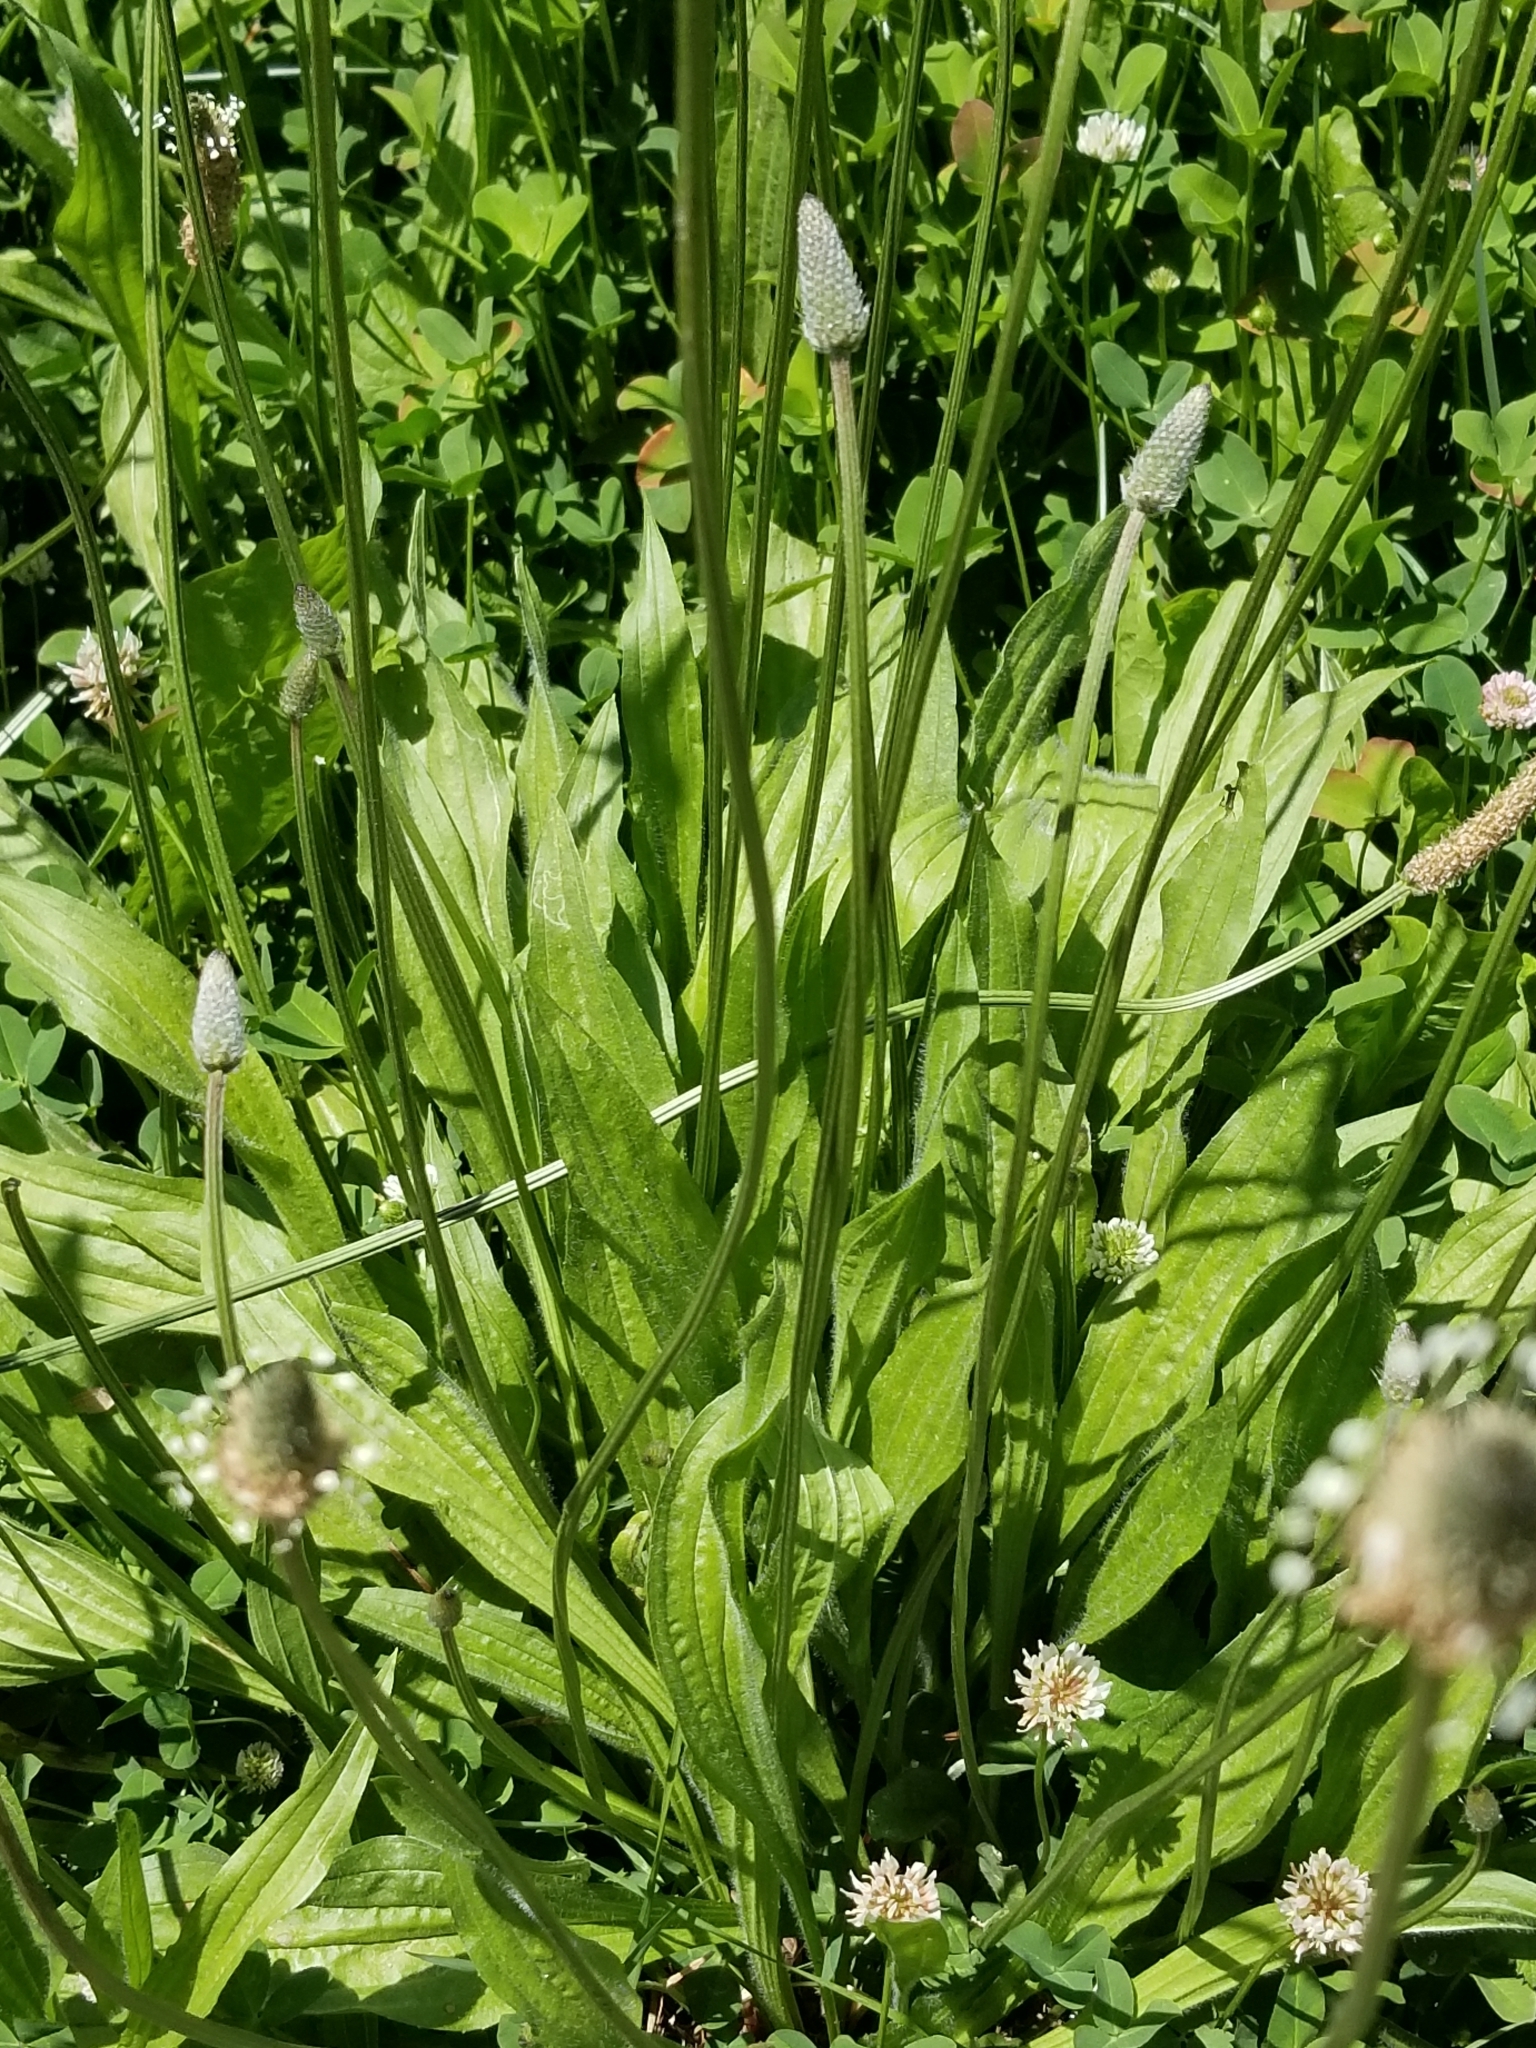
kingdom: Plantae
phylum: Tracheophyta
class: Magnoliopsida
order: Lamiales
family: Plantaginaceae
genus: Plantago
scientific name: Plantago lanceolata
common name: Ribwort plantain
